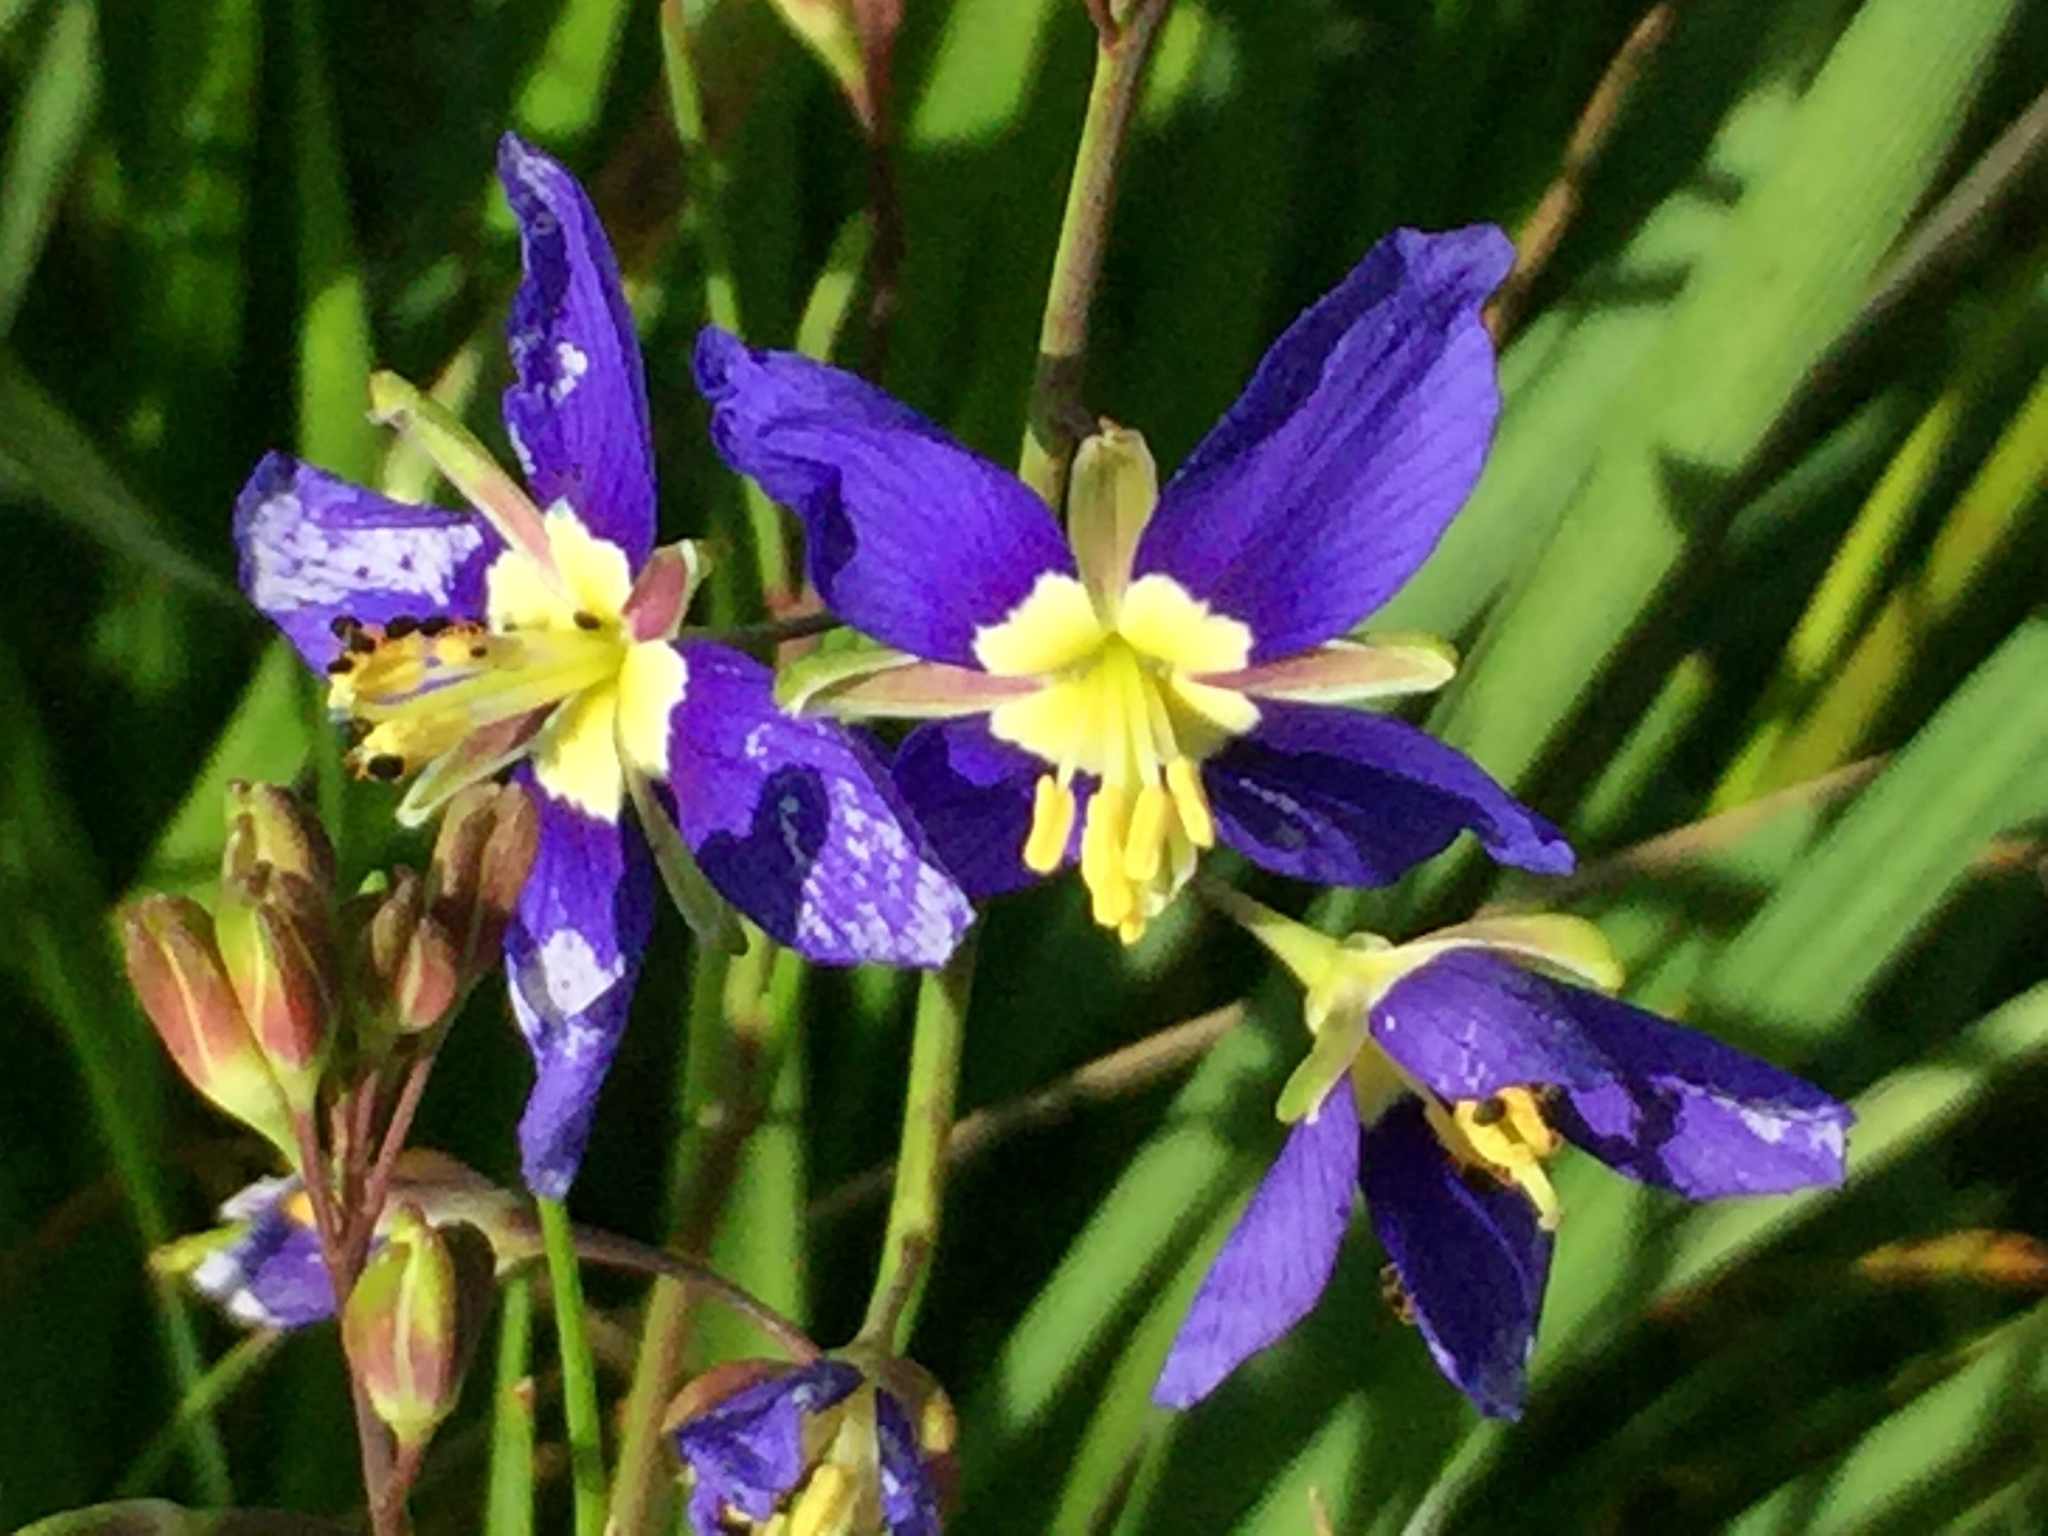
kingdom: Plantae
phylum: Tracheophyta
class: Magnoliopsida
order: Brassicales
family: Brassicaceae
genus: Heliophila
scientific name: Heliophila coronopifolia
